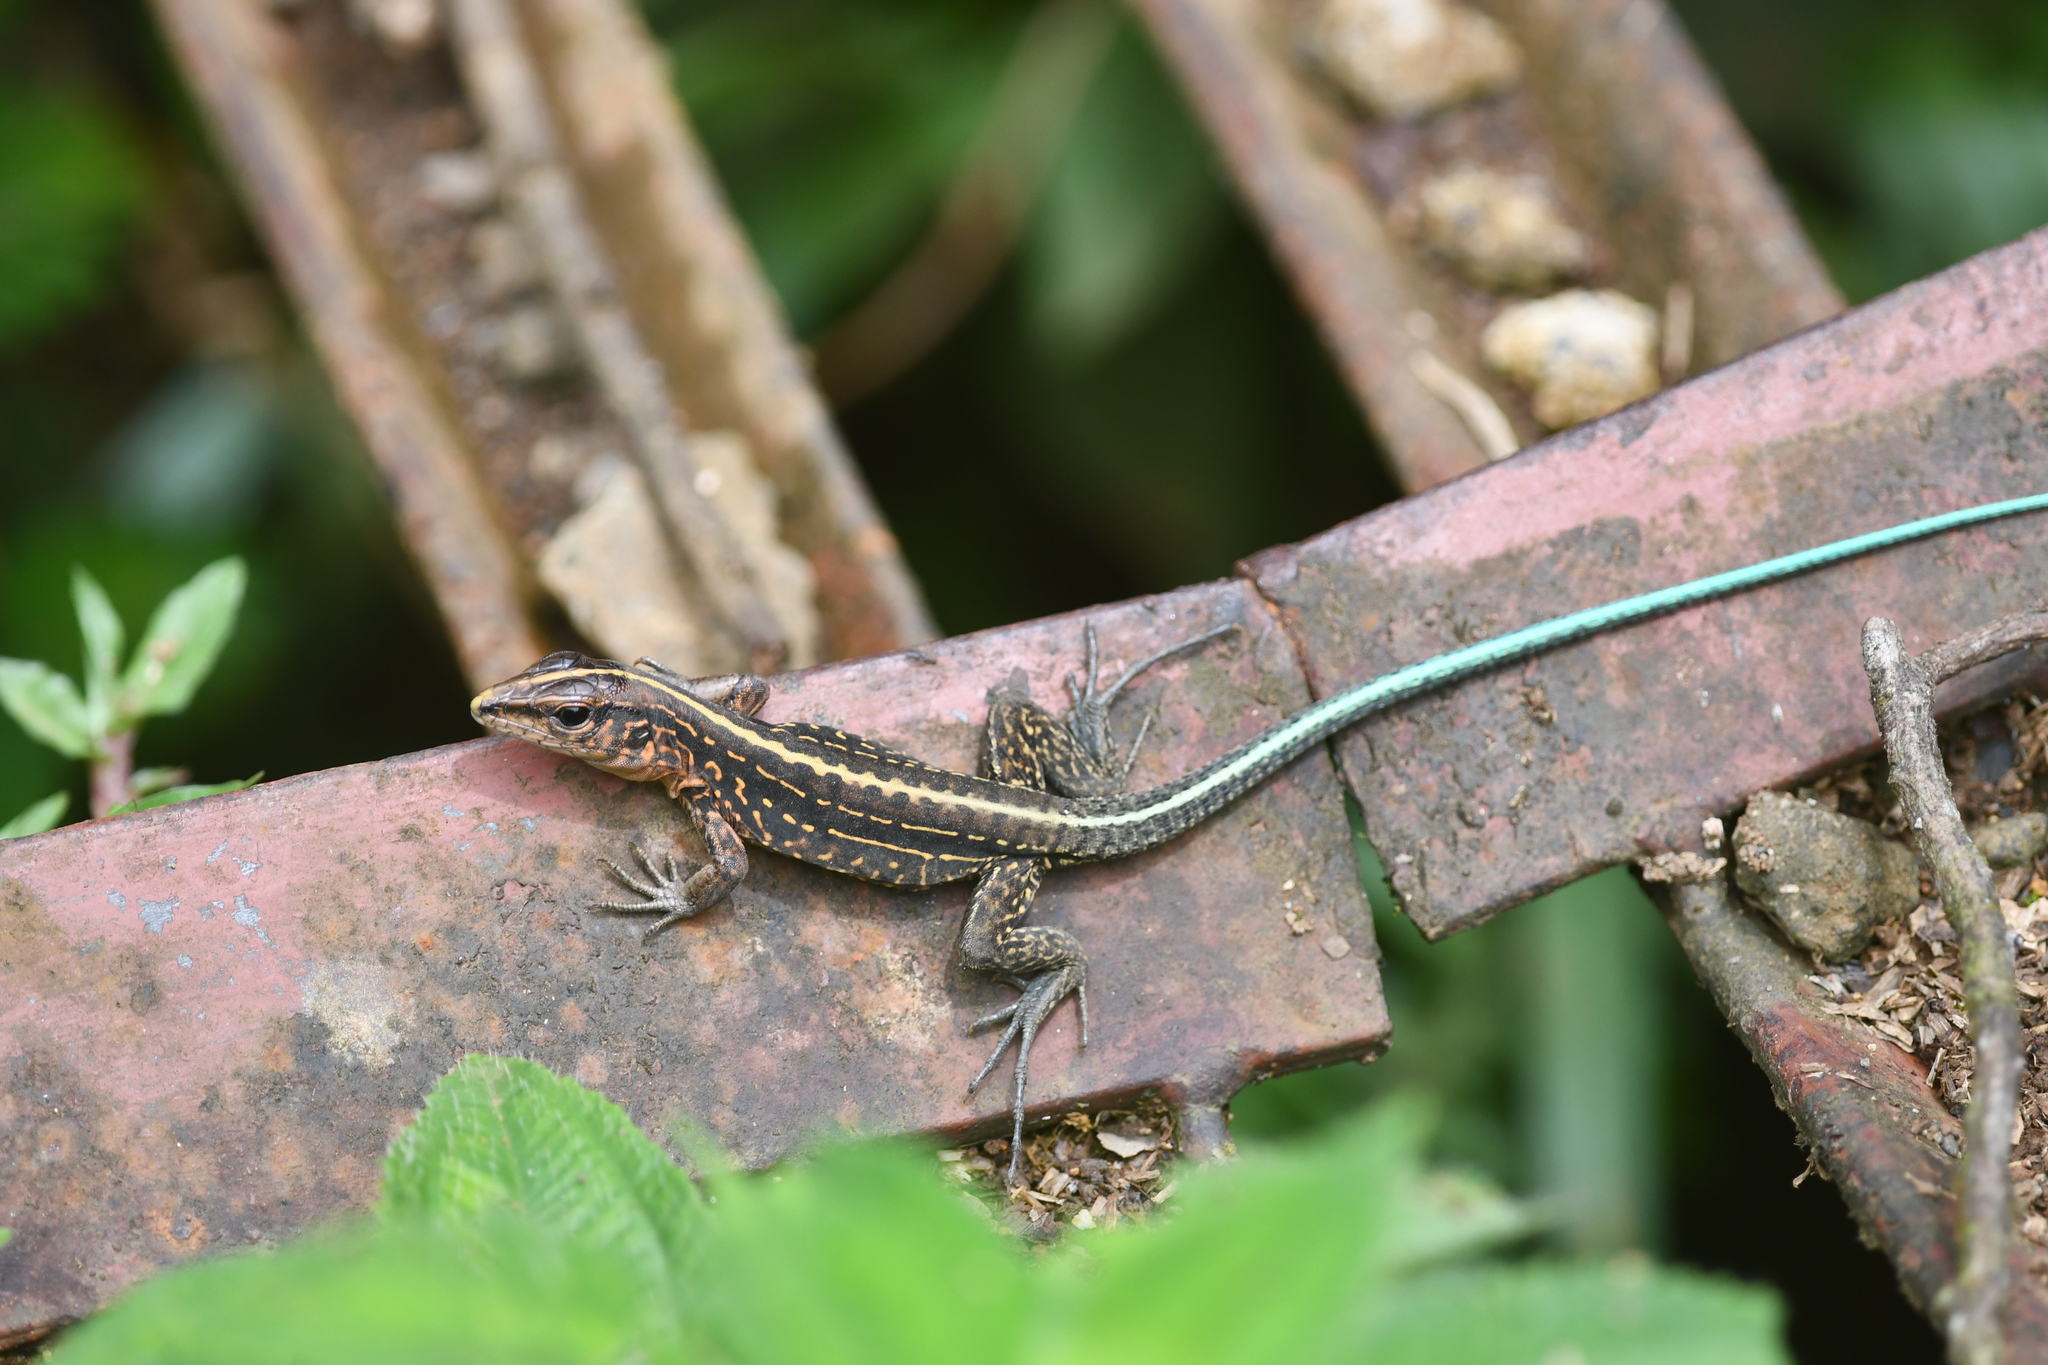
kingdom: Animalia
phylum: Chordata
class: Squamata
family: Teiidae
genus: Holcosus
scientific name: Holcosus festivus
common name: Middle american ameiva
